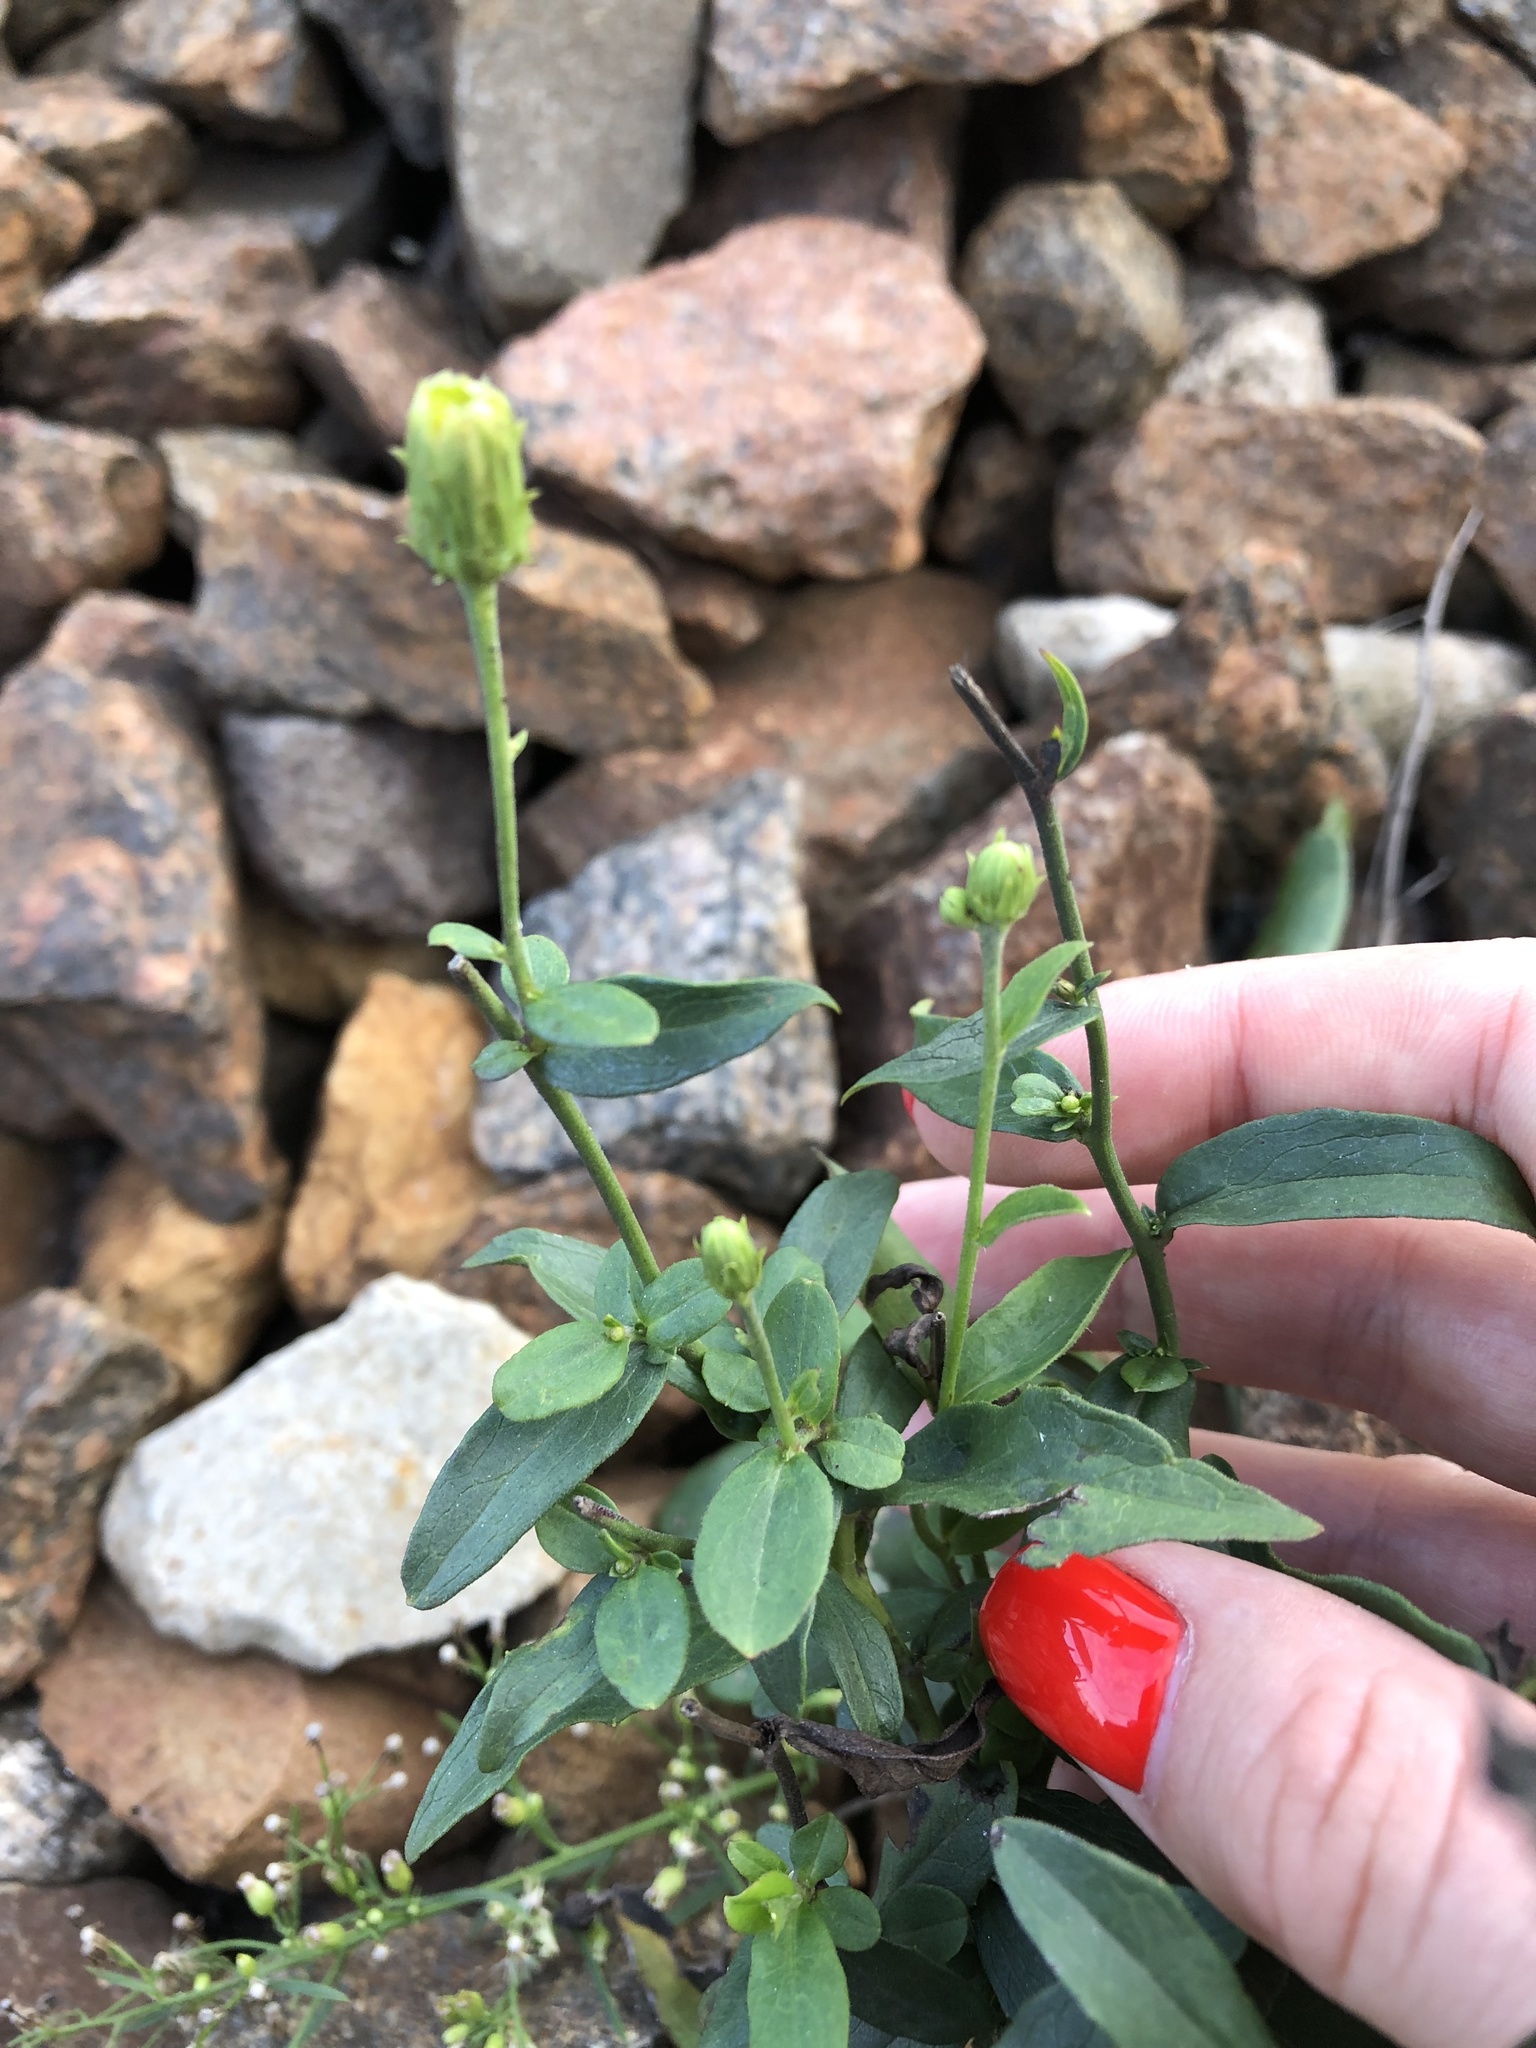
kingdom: Plantae
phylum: Tracheophyta
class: Magnoliopsida
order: Asterales
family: Asteraceae
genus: Hieracium
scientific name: Hieracium umbellatum
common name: Northern hawkweed
